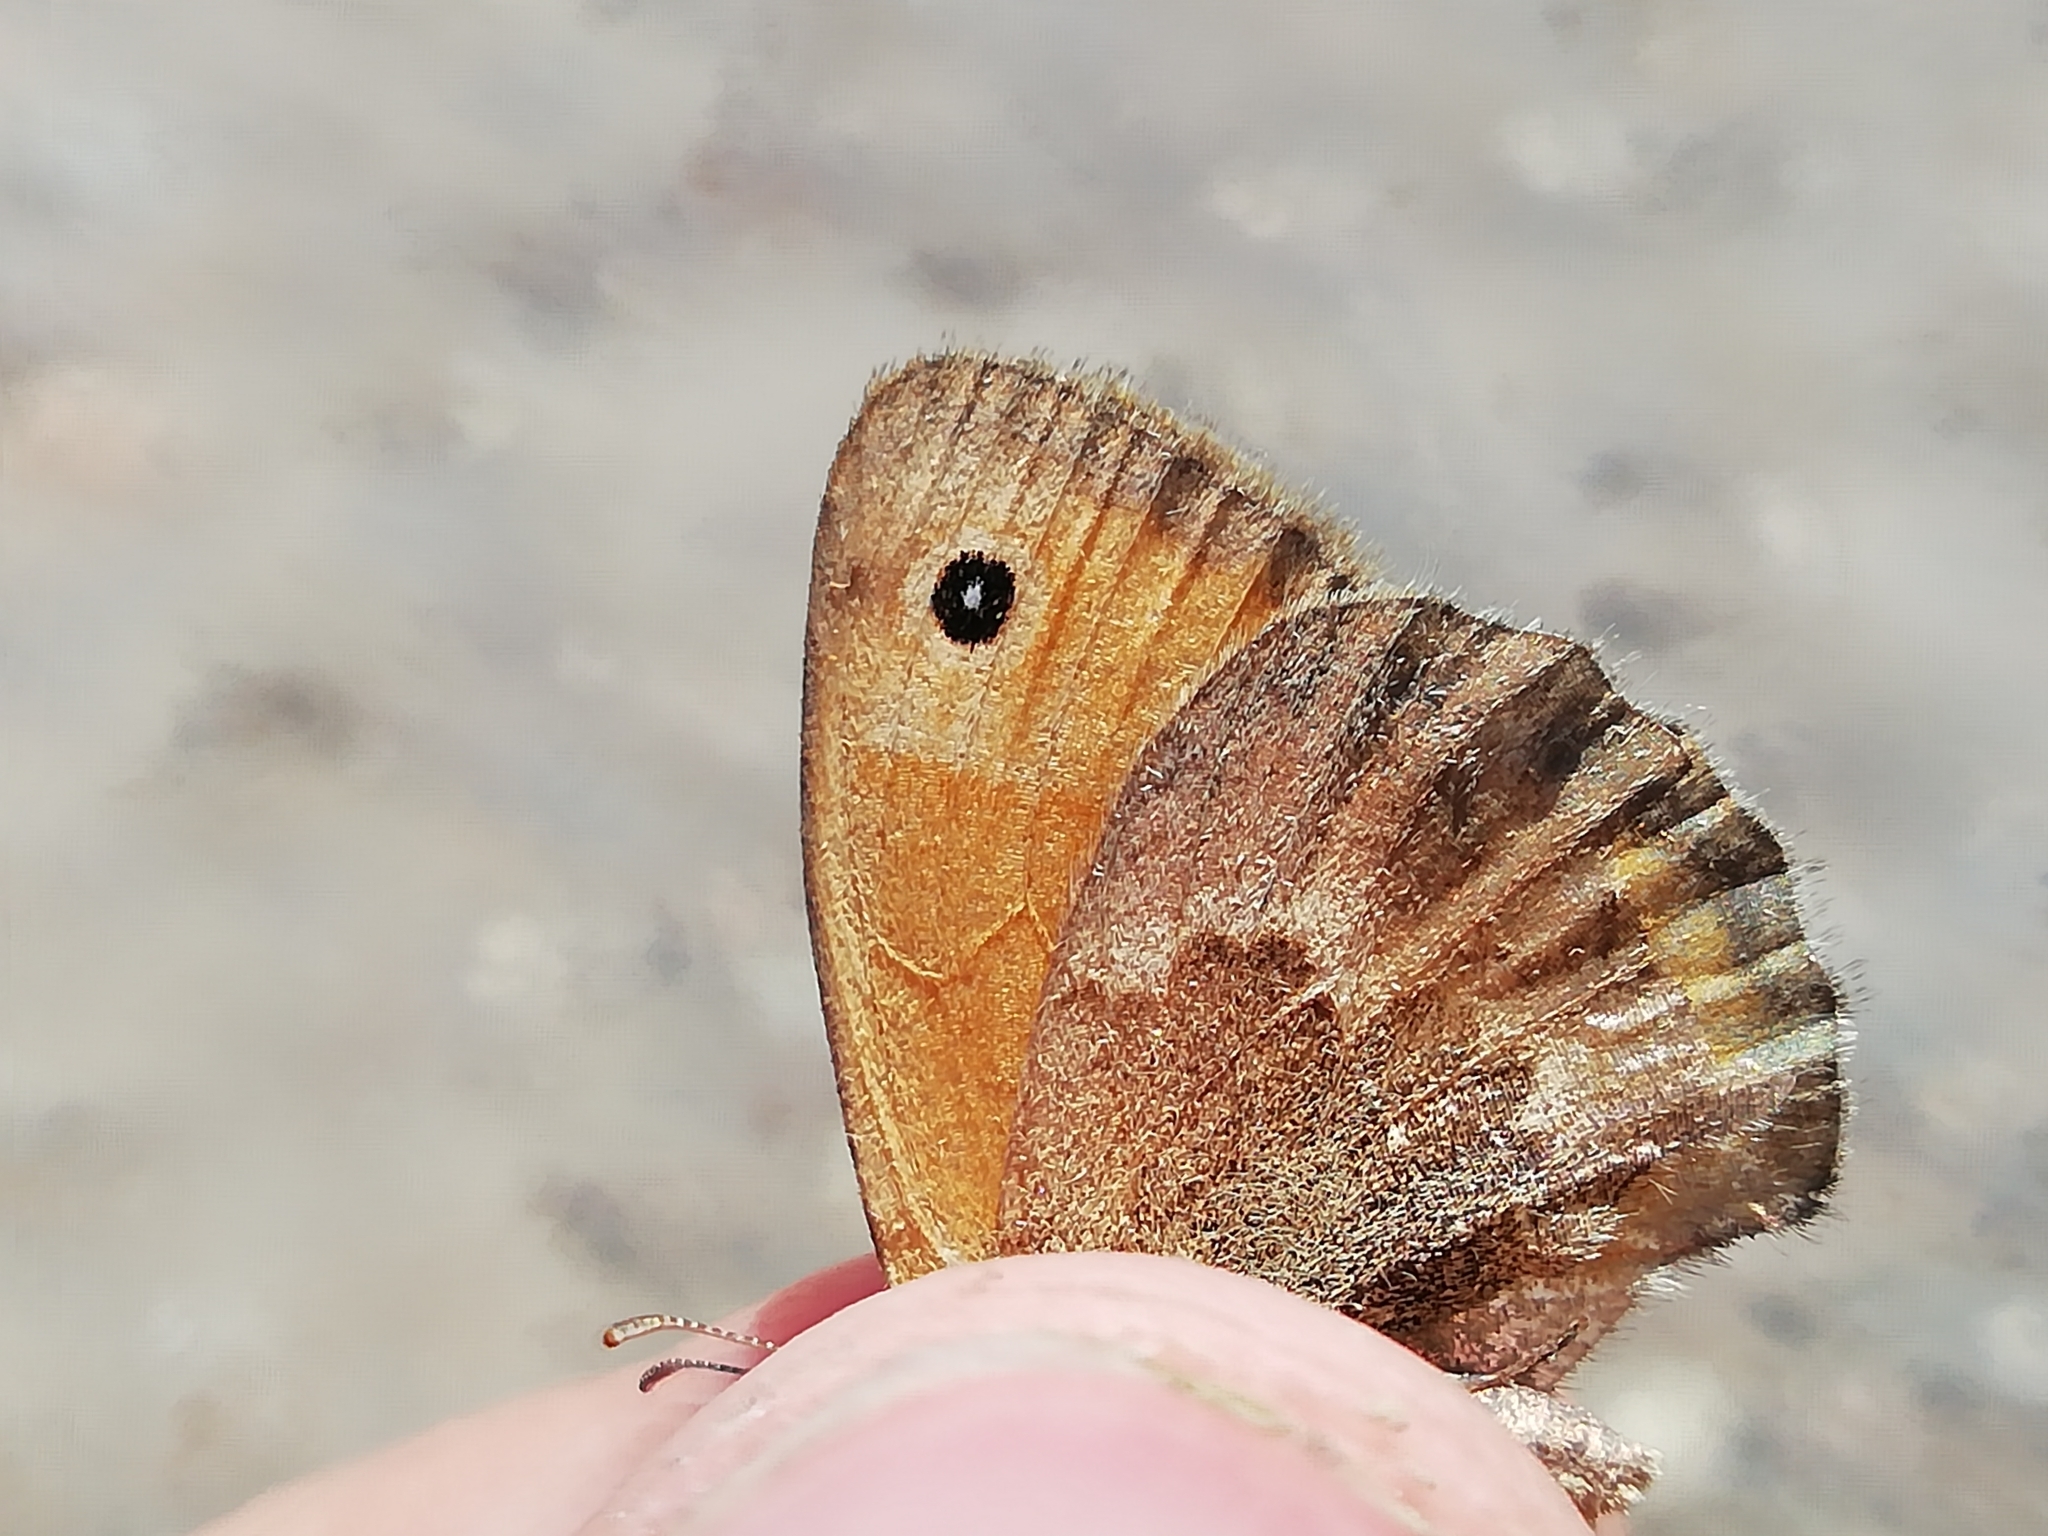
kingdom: Animalia
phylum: Arthropoda
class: Insecta
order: Lepidoptera
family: Nymphalidae
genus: Coenonympha
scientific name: Coenonympha pamphilus
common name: Small heath
